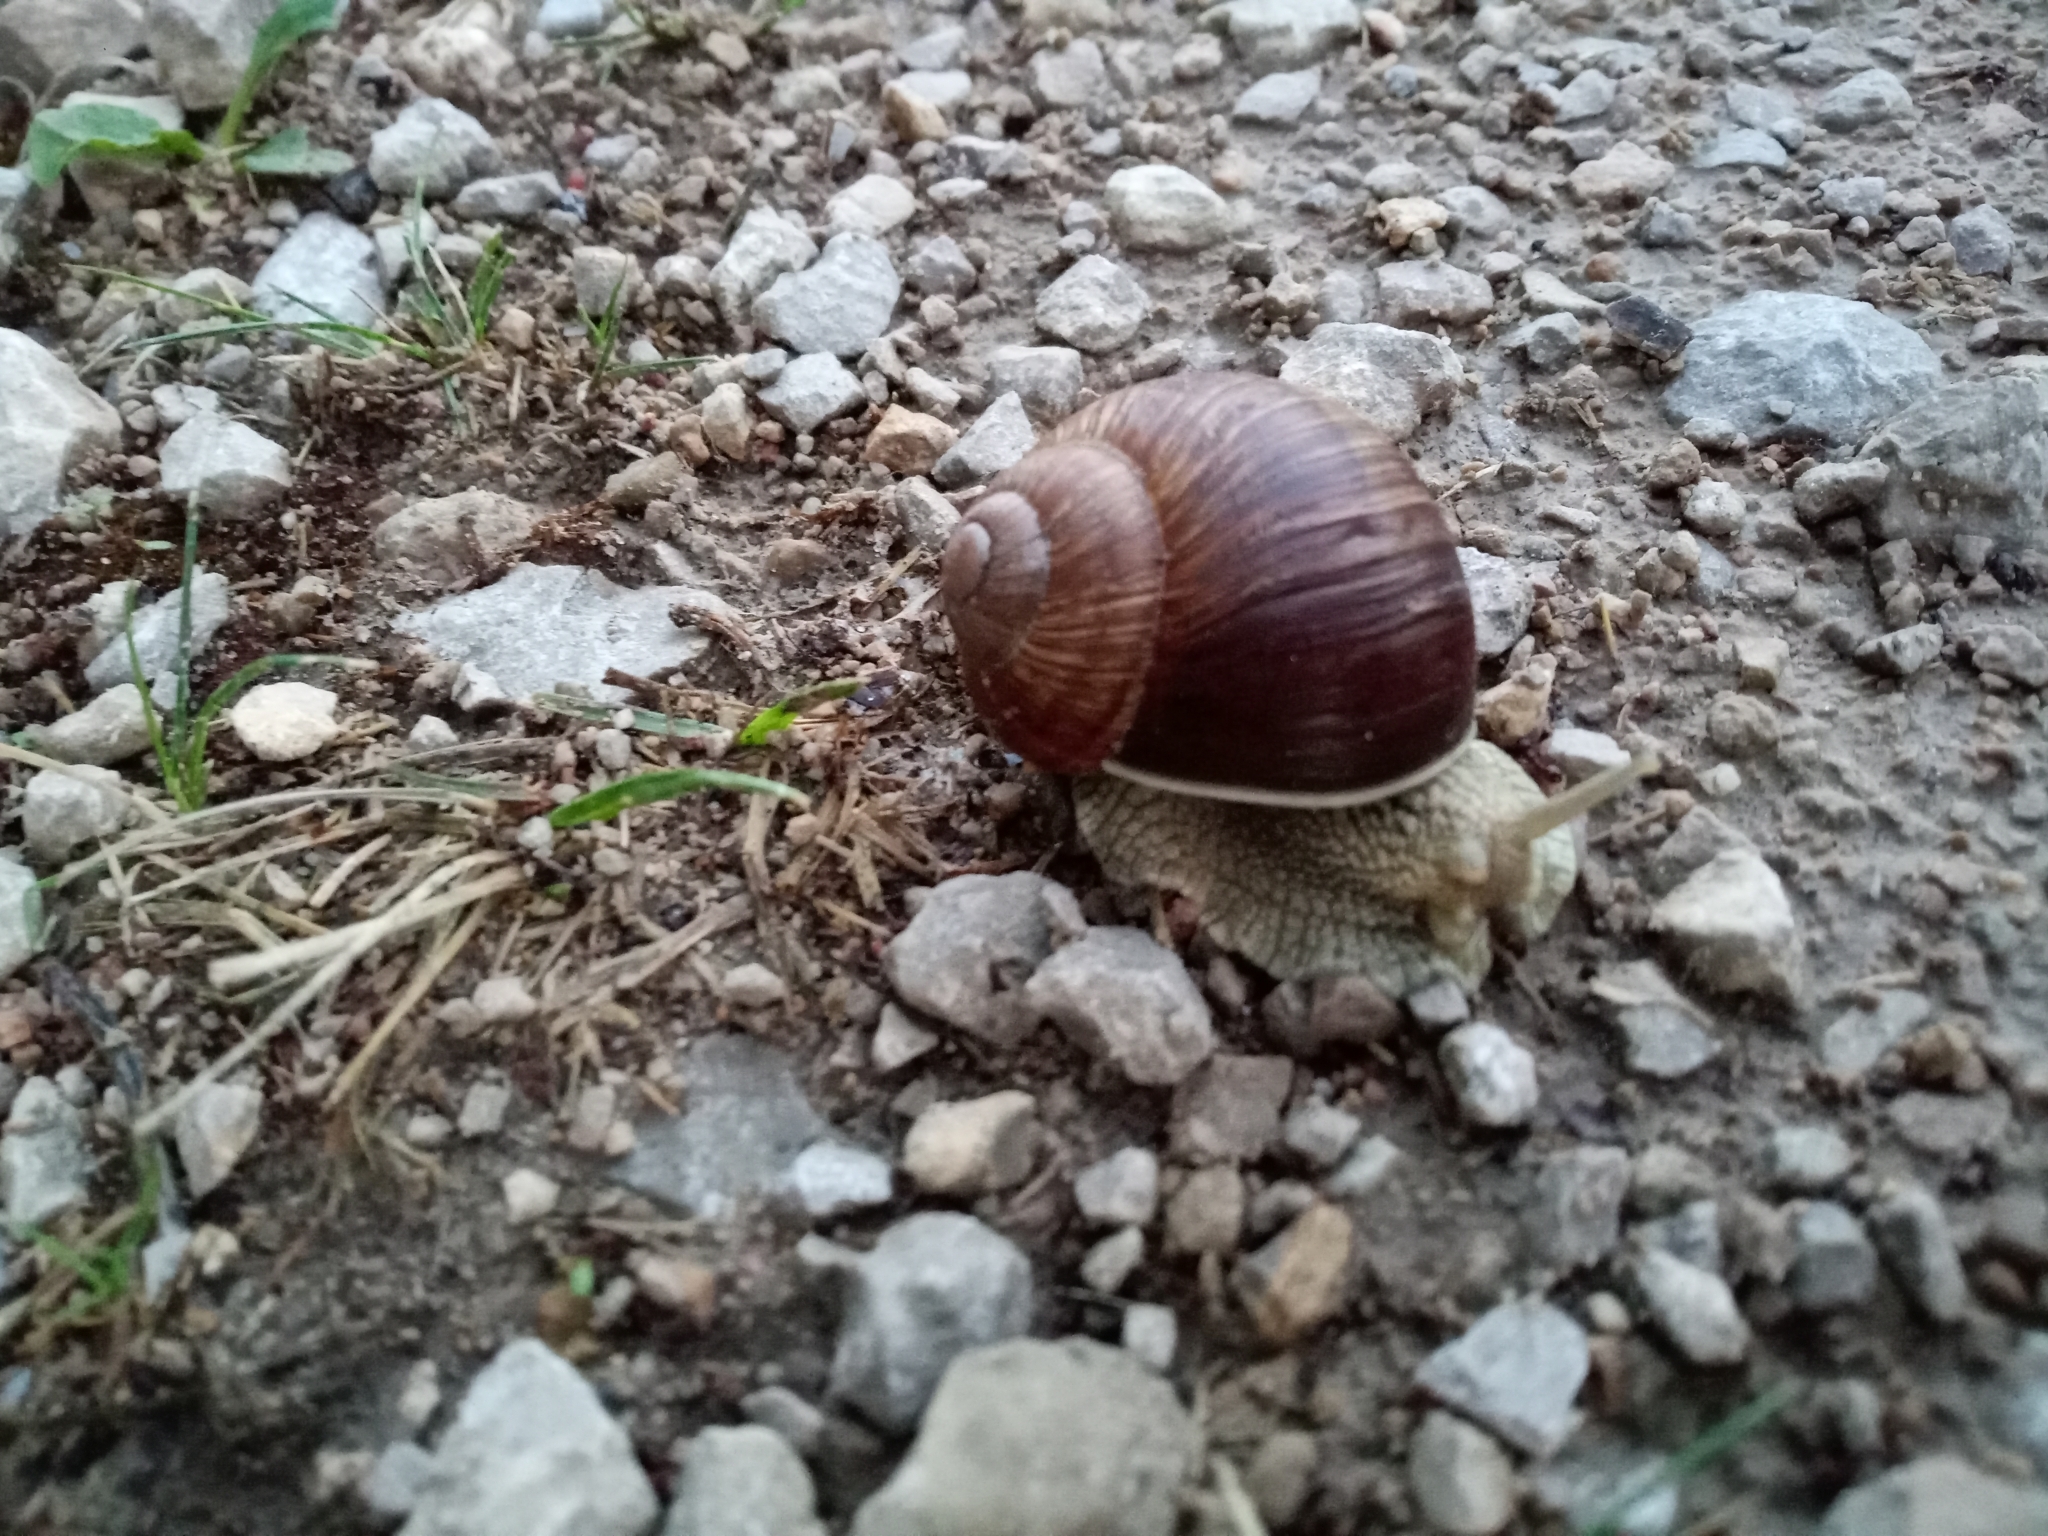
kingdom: Animalia
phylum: Mollusca
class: Gastropoda
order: Stylommatophora
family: Helicidae
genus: Helix
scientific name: Helix pomatia
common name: Roman snail
